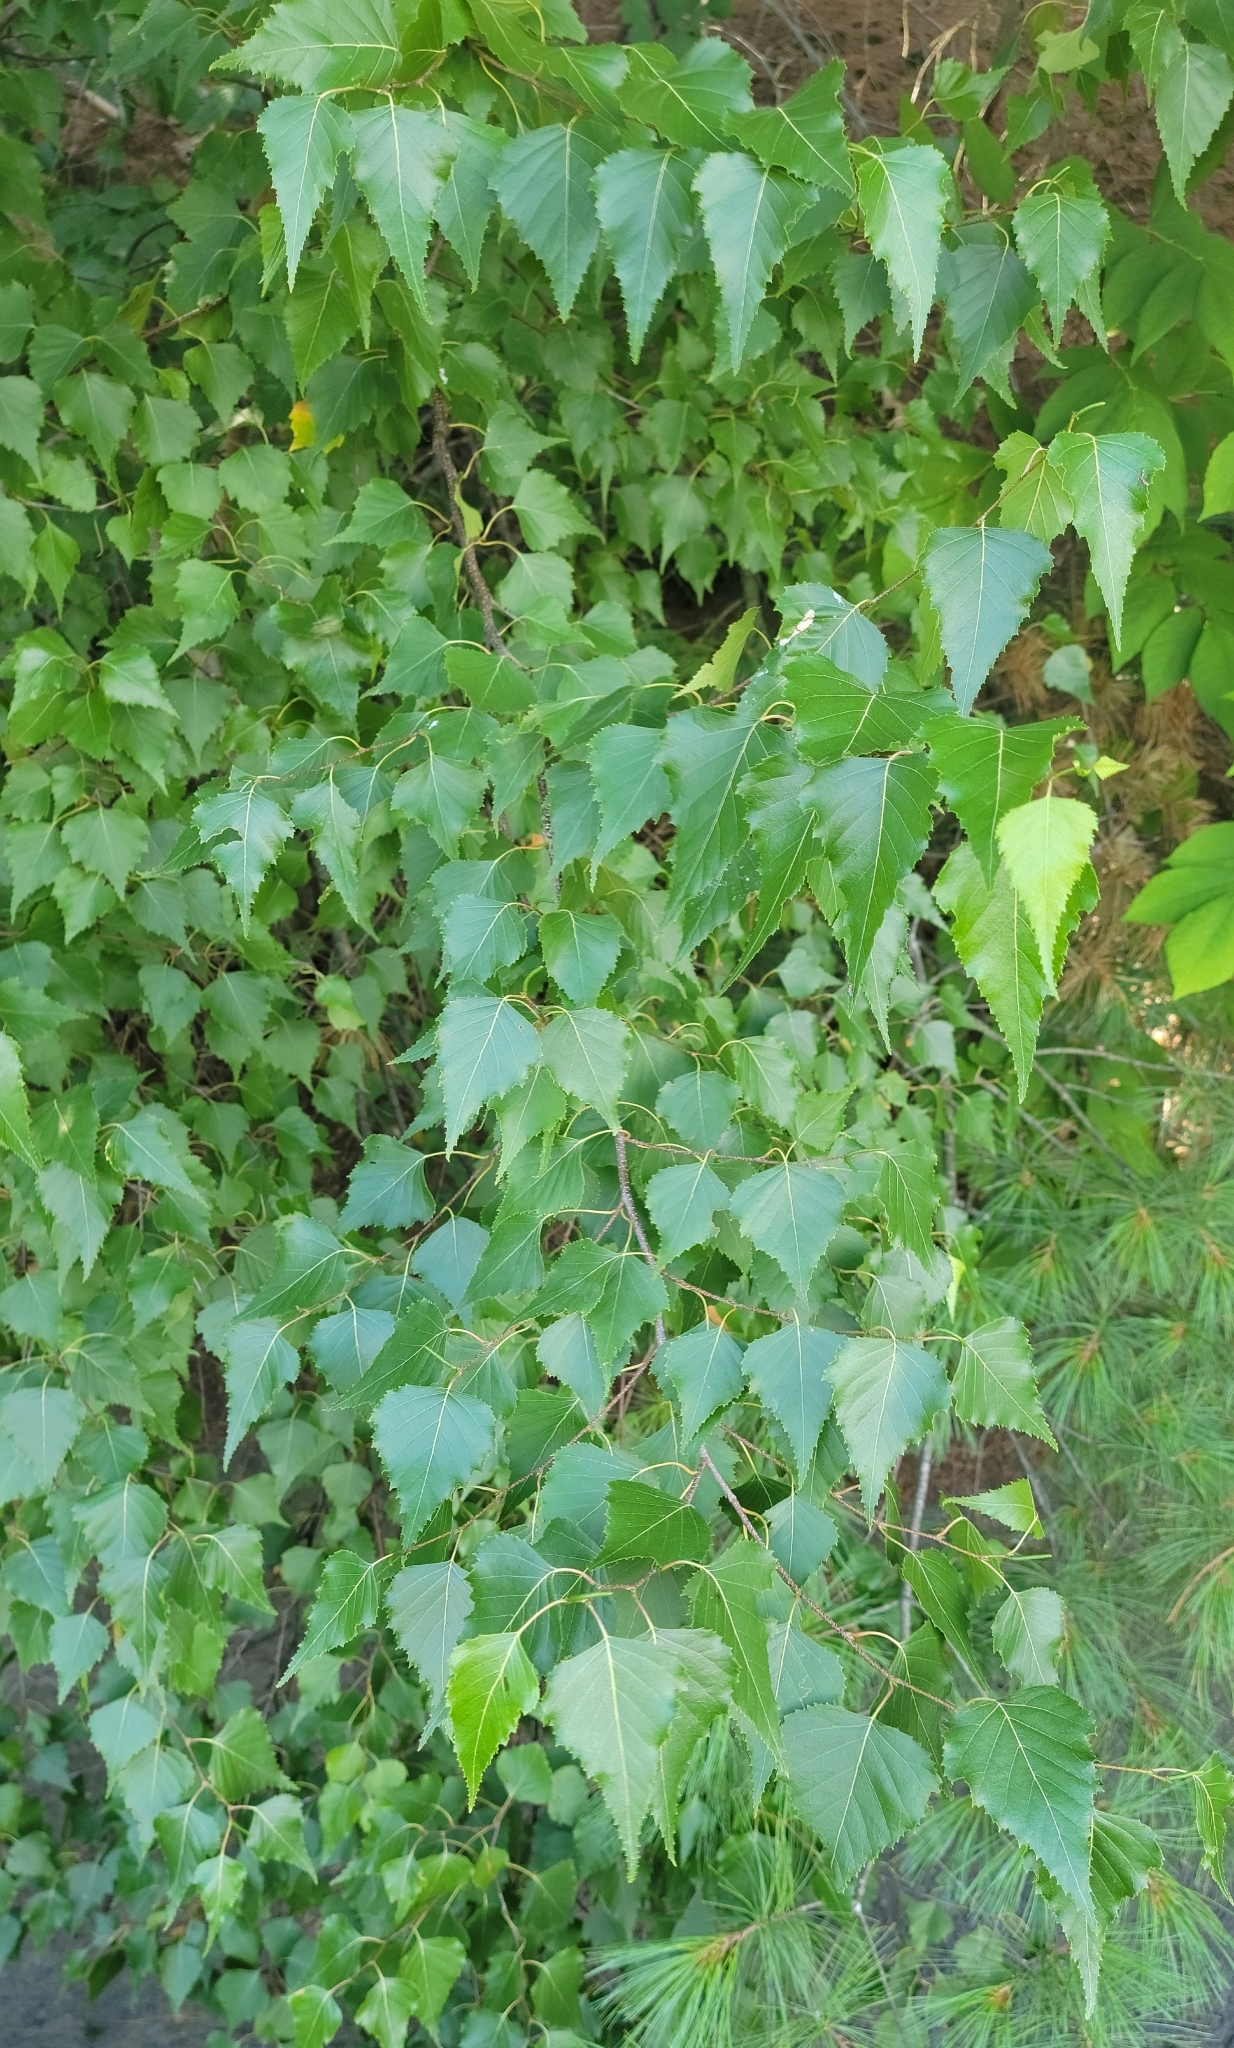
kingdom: Plantae
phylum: Tracheophyta
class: Magnoliopsida
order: Fagales
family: Betulaceae
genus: Betula
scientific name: Betula populifolia
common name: Fire birch
